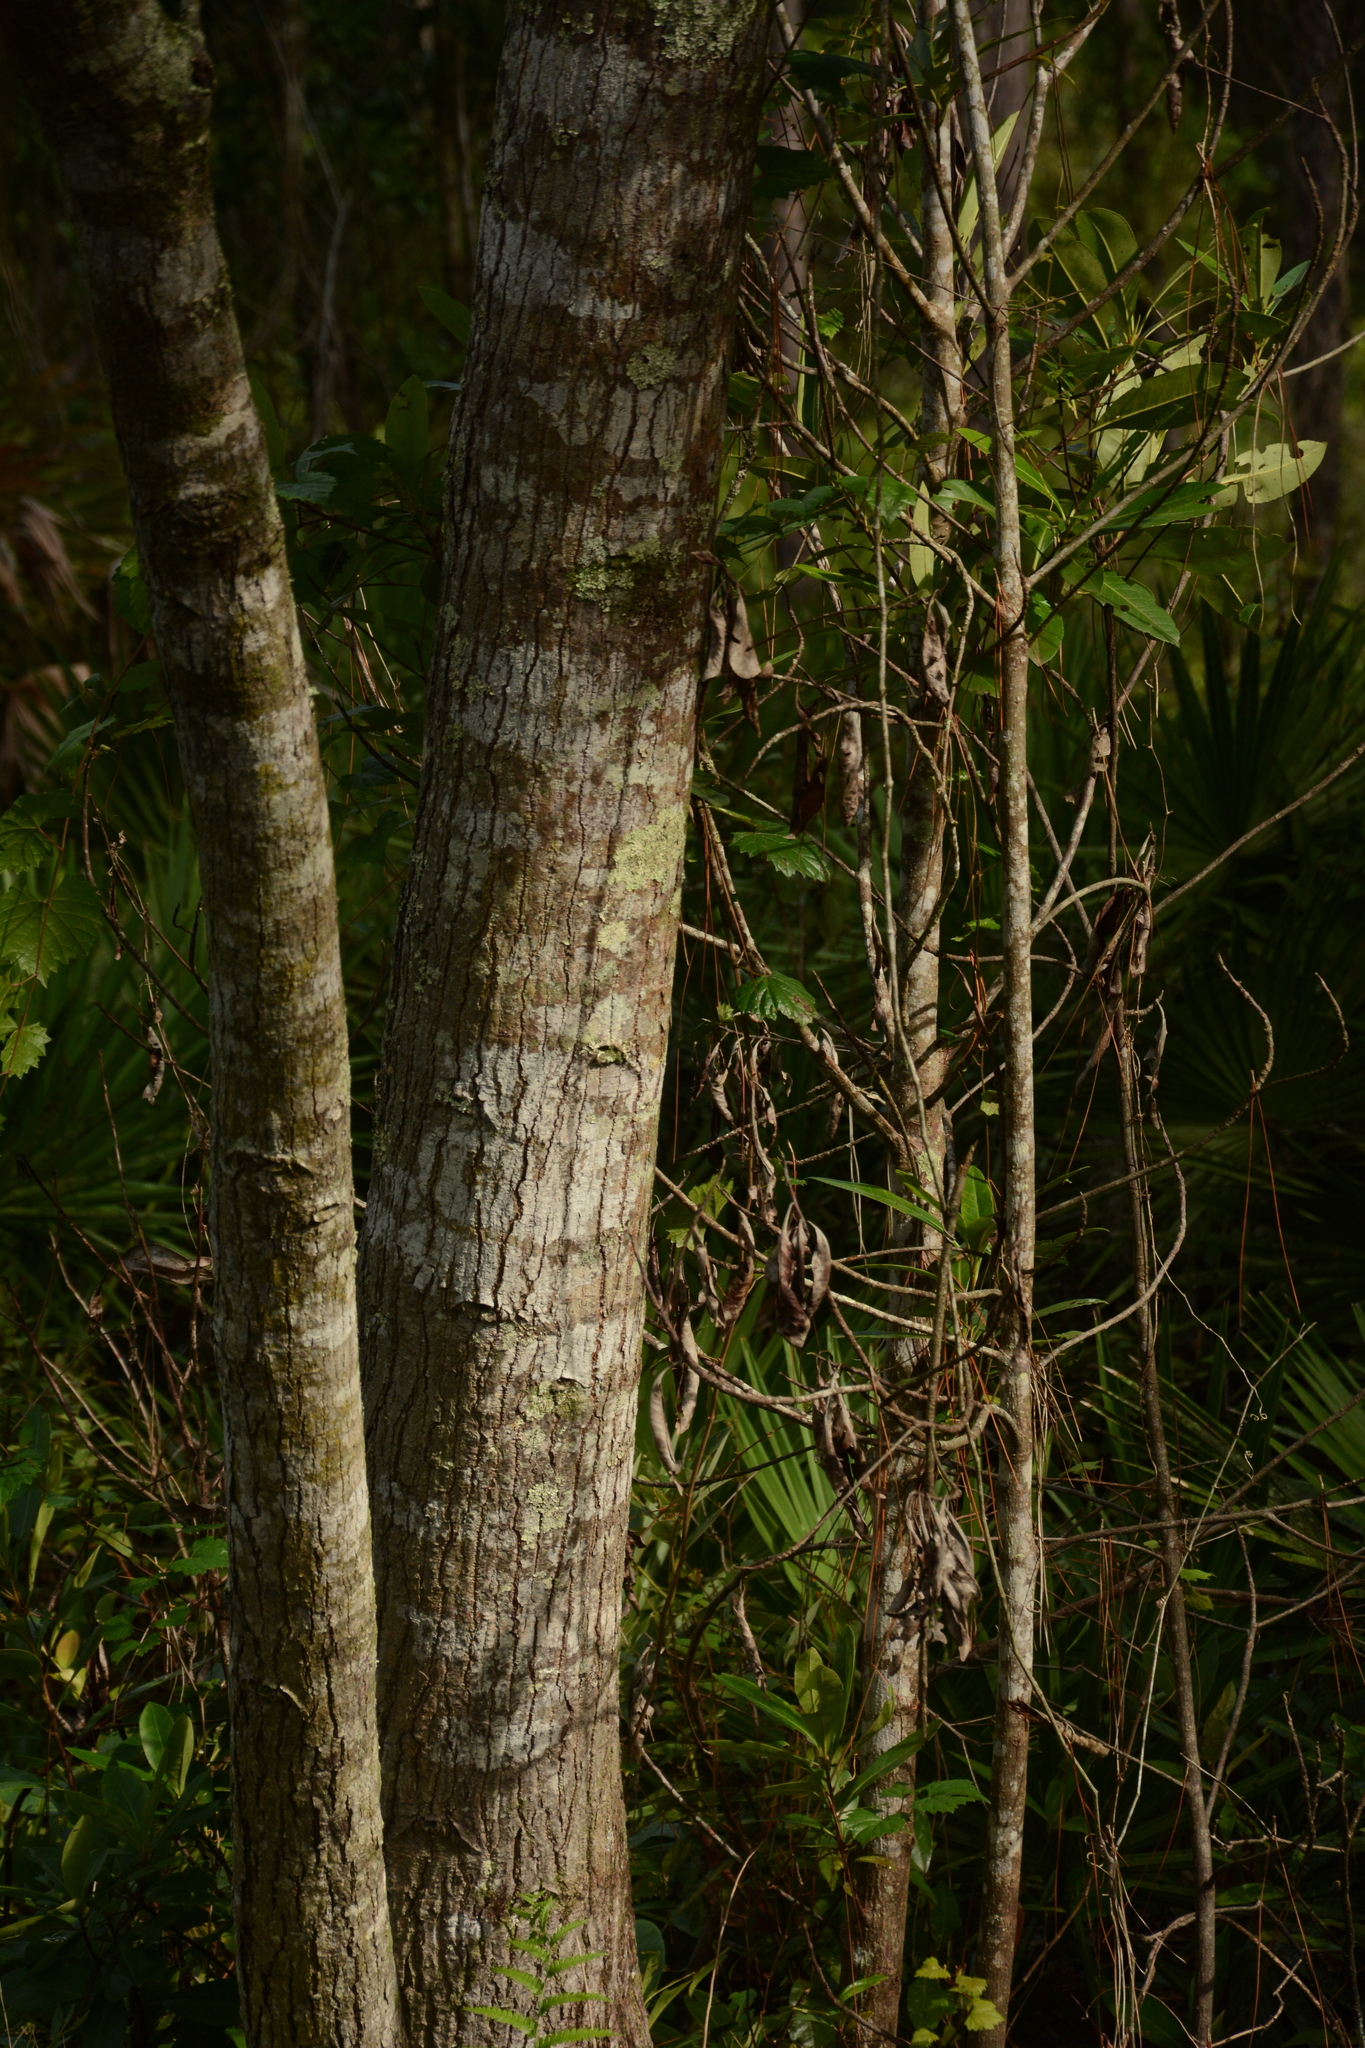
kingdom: Plantae
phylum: Tracheophyta
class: Magnoliopsida
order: Ericales
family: Theaceae
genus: Gordonia
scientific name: Gordonia lasianthus
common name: Loblolly bay
